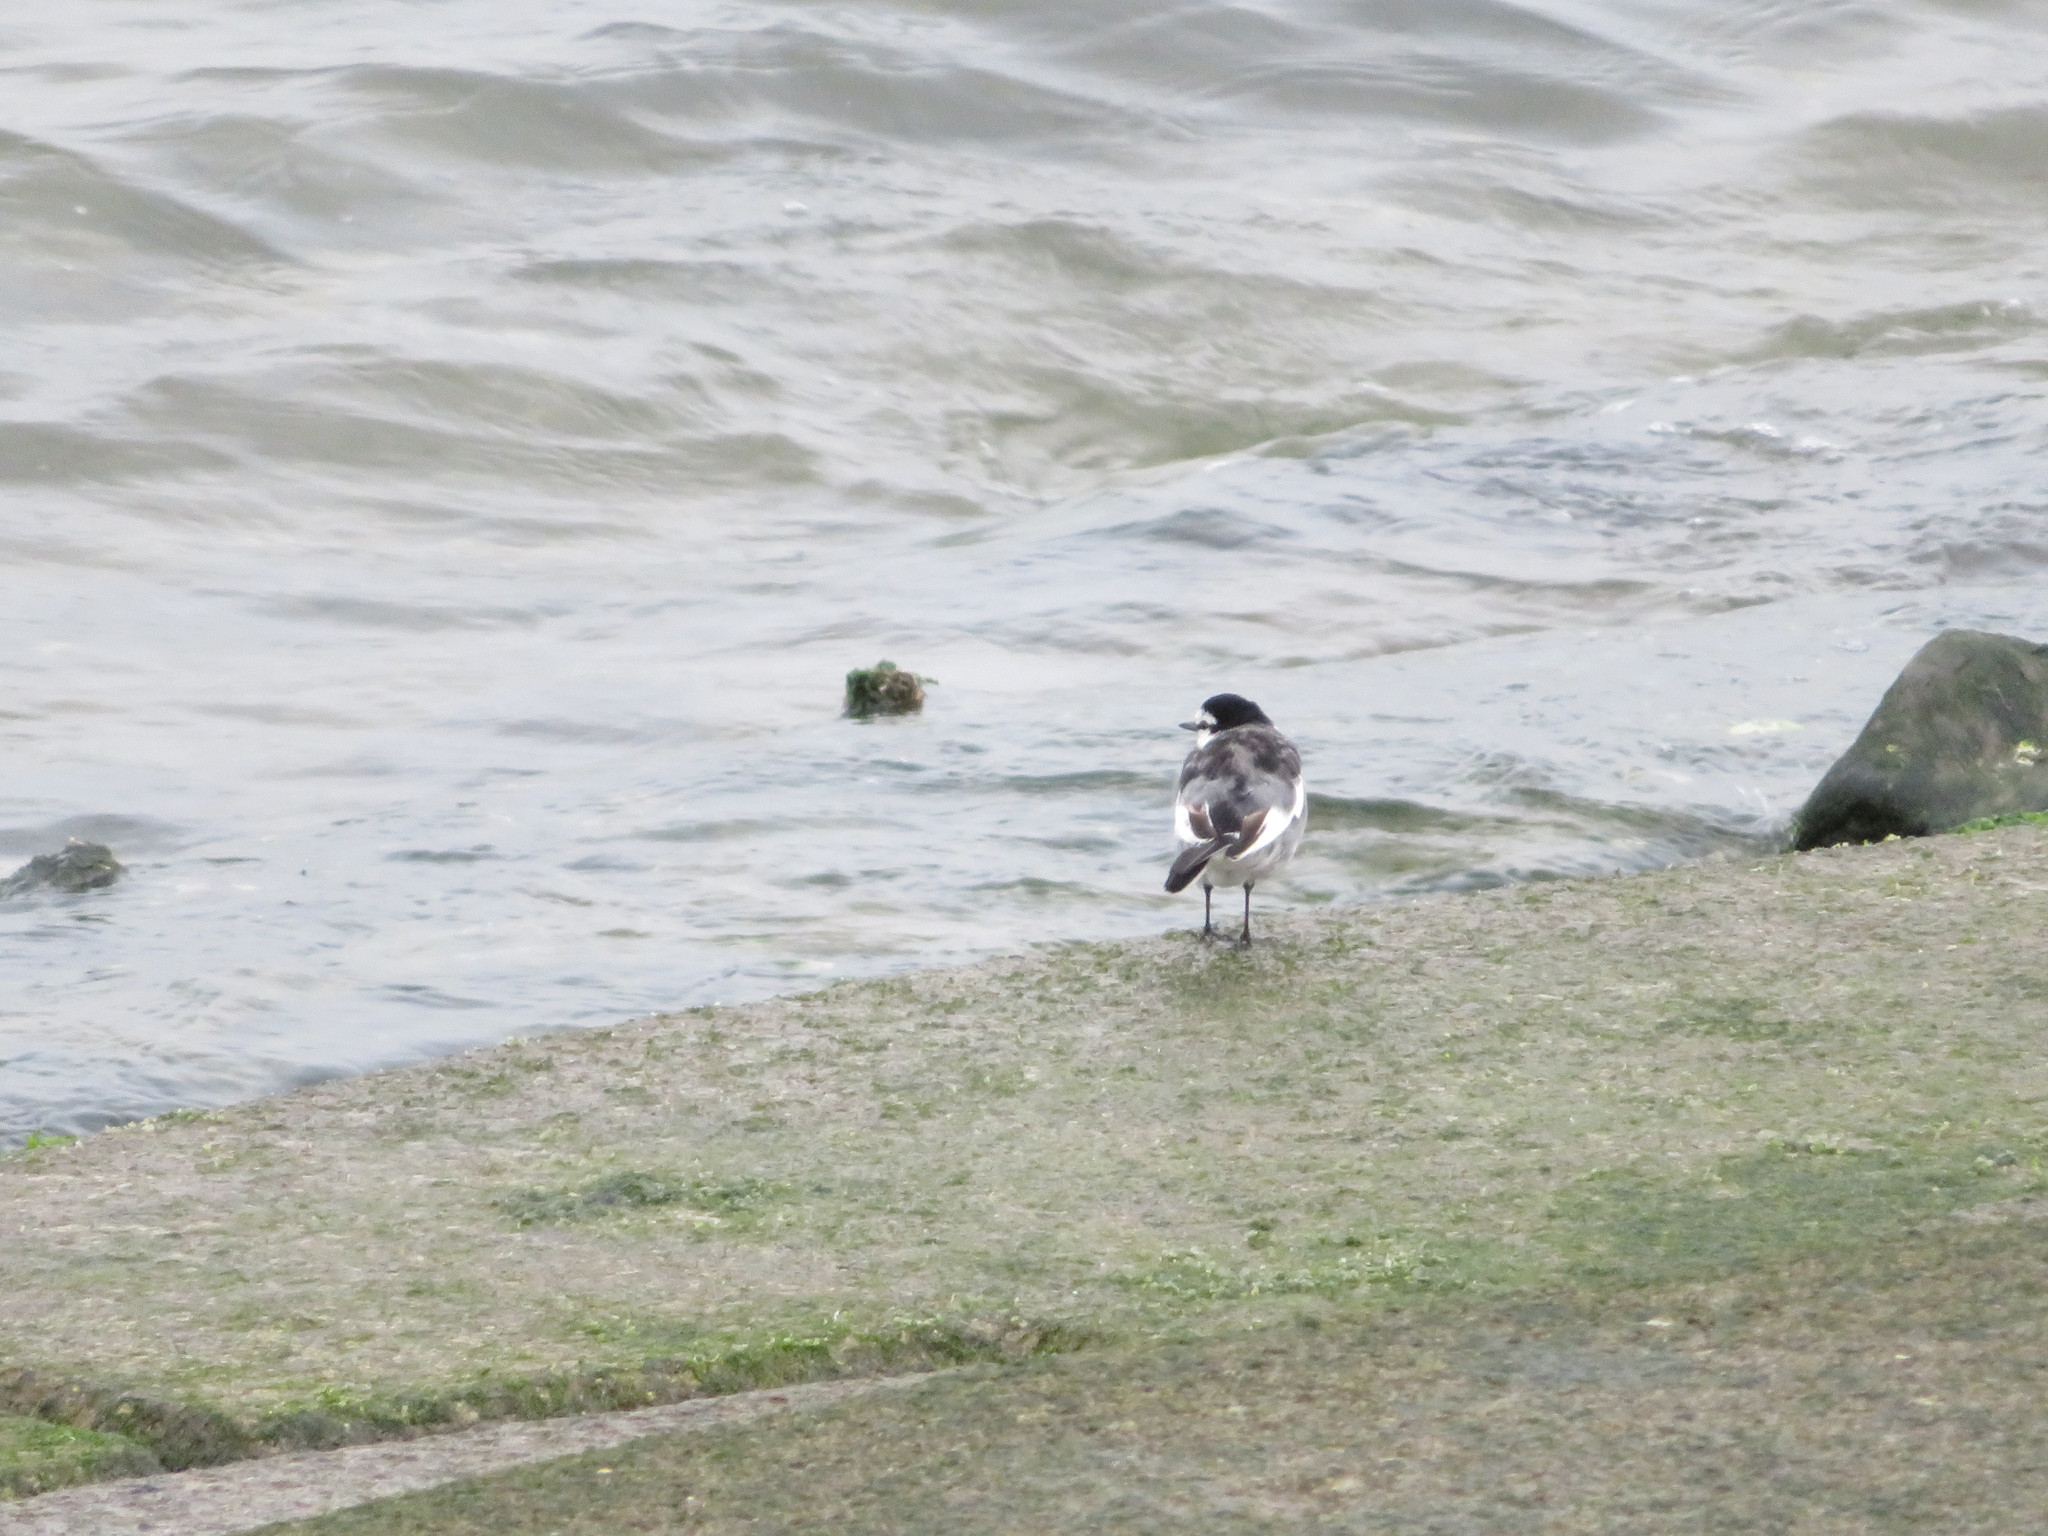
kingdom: Animalia
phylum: Chordata
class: Aves
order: Passeriformes
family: Motacillidae
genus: Motacilla
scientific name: Motacilla alba
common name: White wagtail
